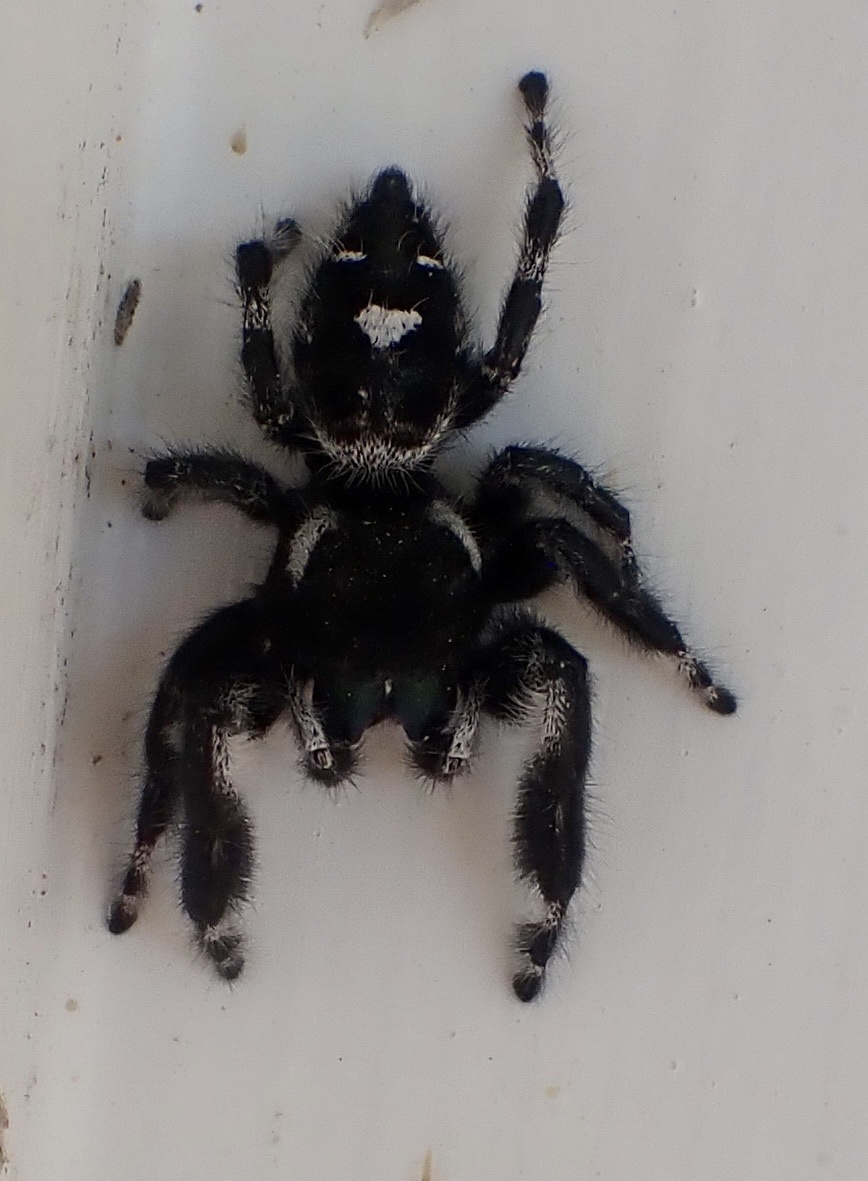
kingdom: Animalia
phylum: Arthropoda
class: Arachnida
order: Araneae
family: Salticidae
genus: Phidippus
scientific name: Phidippus audax
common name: Bold jumper
